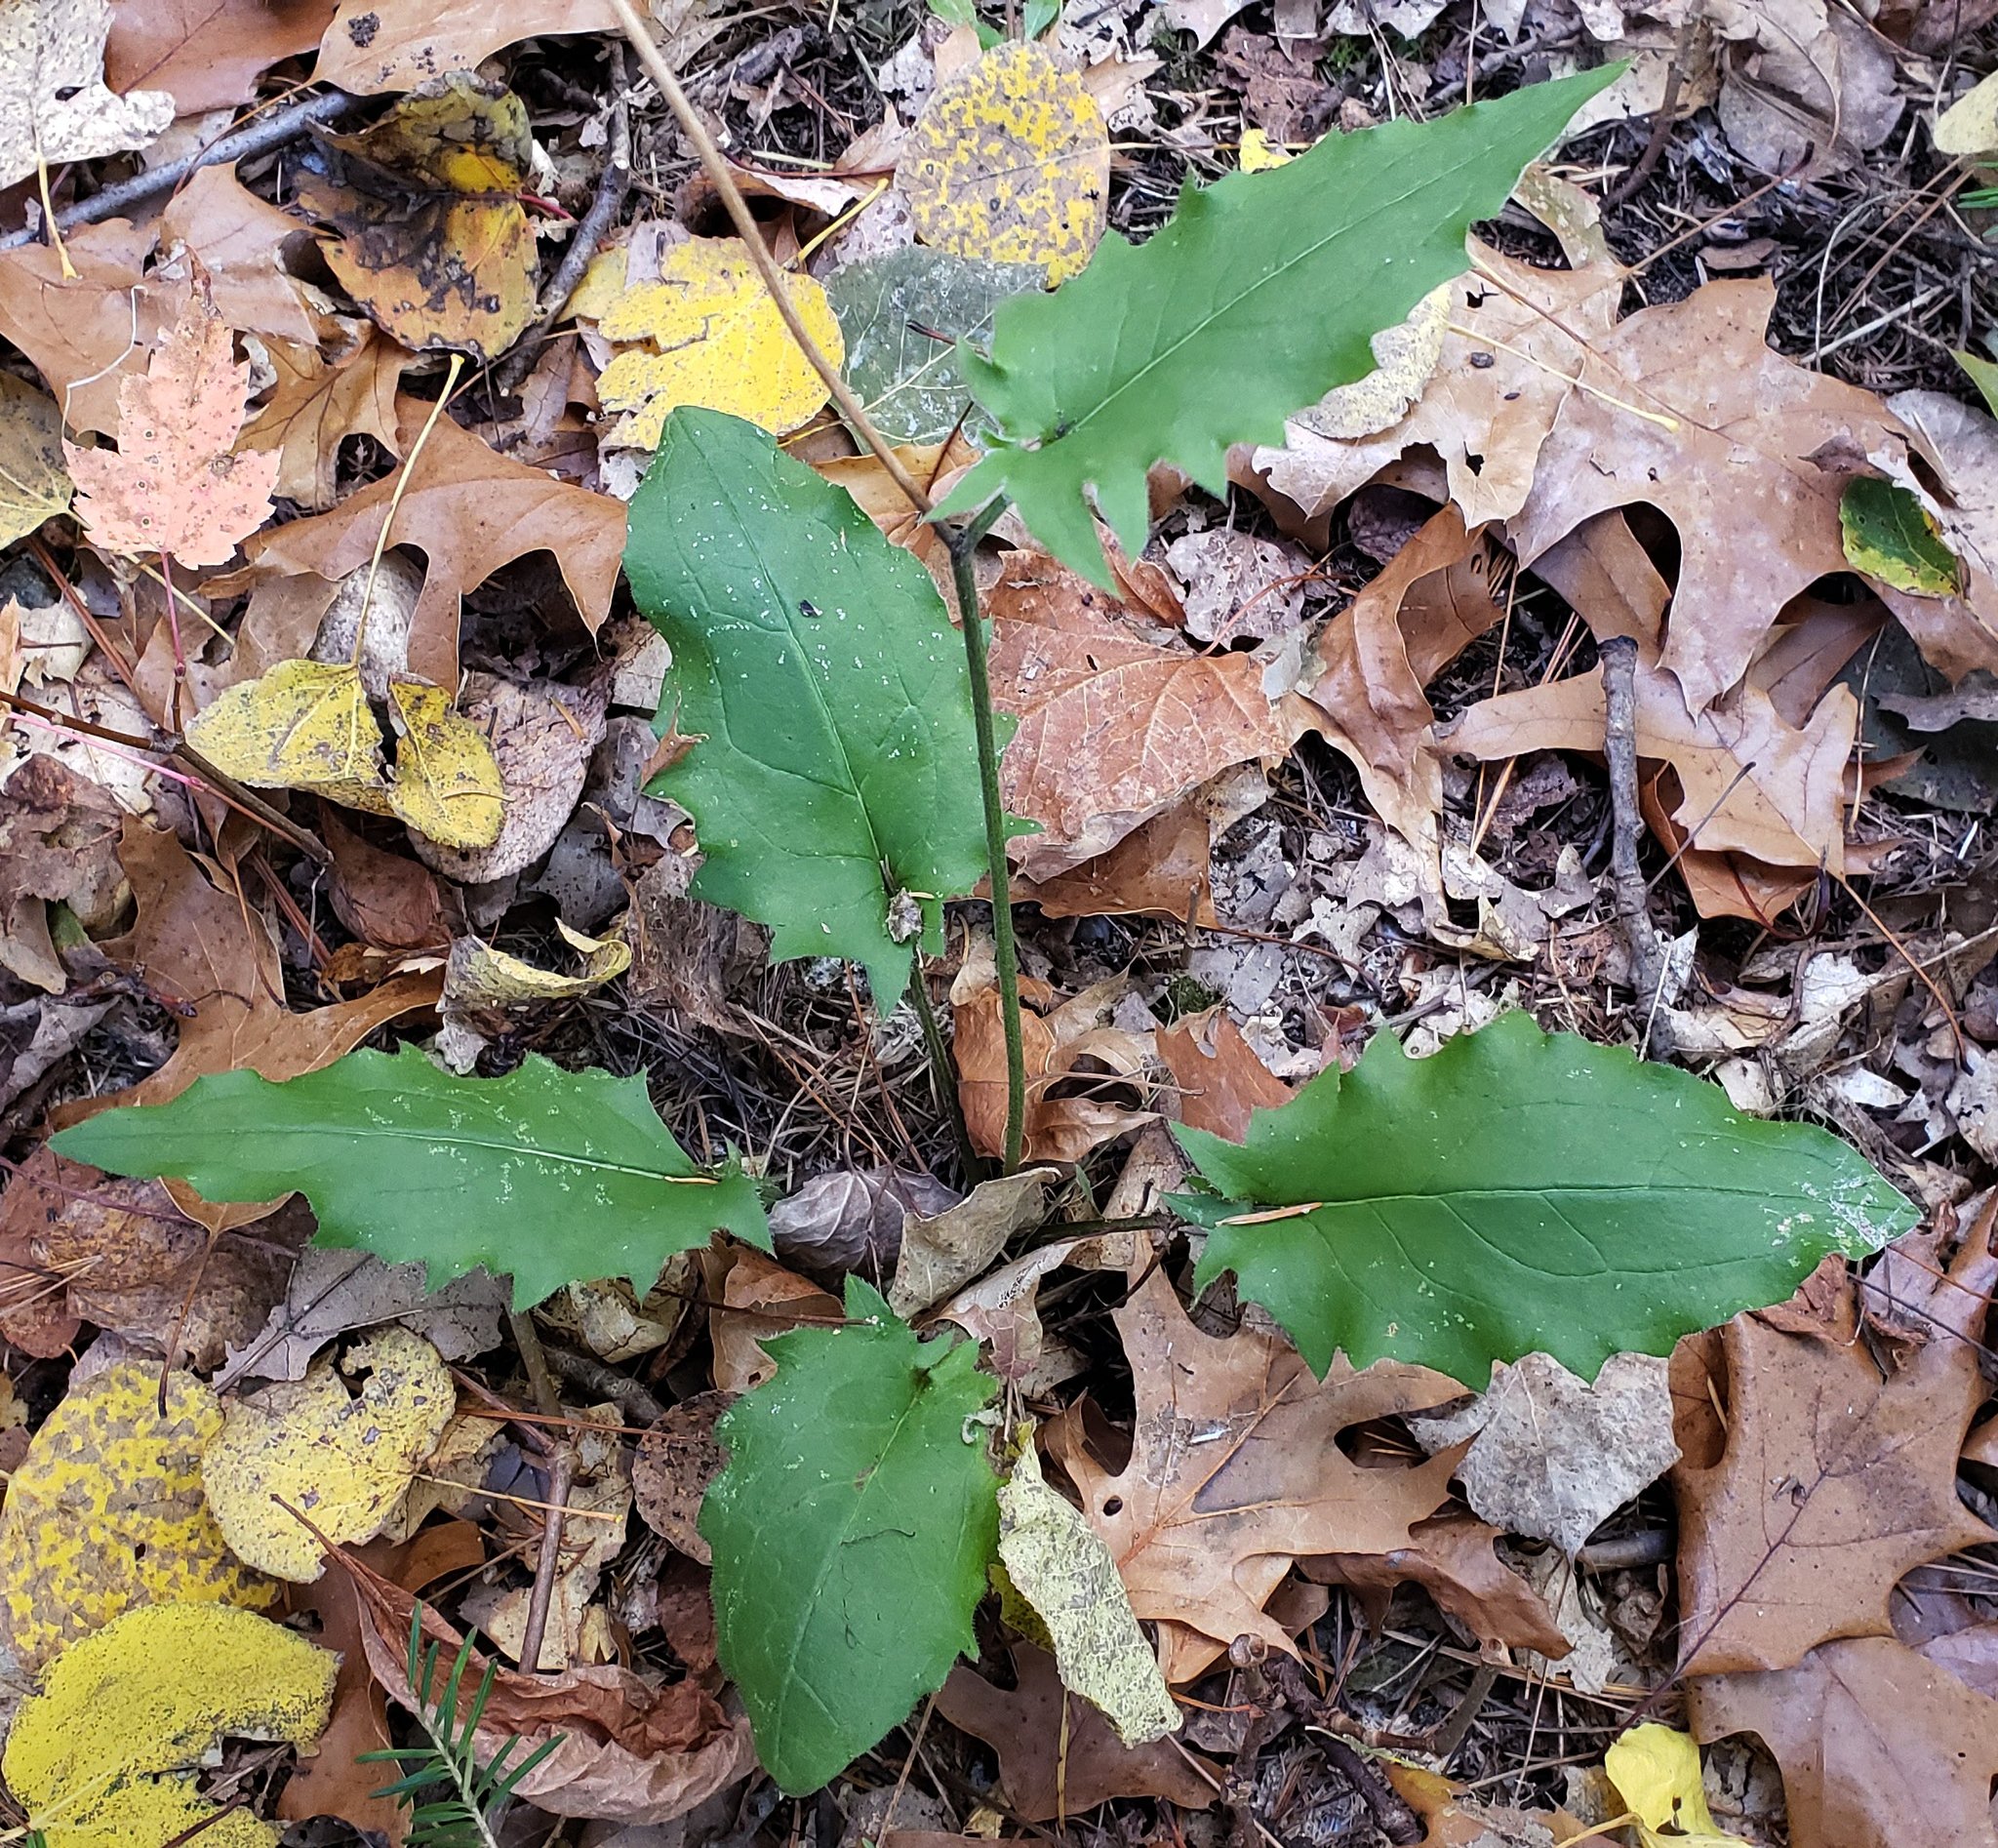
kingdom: Plantae
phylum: Tracheophyta
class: Magnoliopsida
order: Asterales
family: Asteraceae
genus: Hieracium
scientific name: Hieracium murorum
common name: Wall hawkweed
